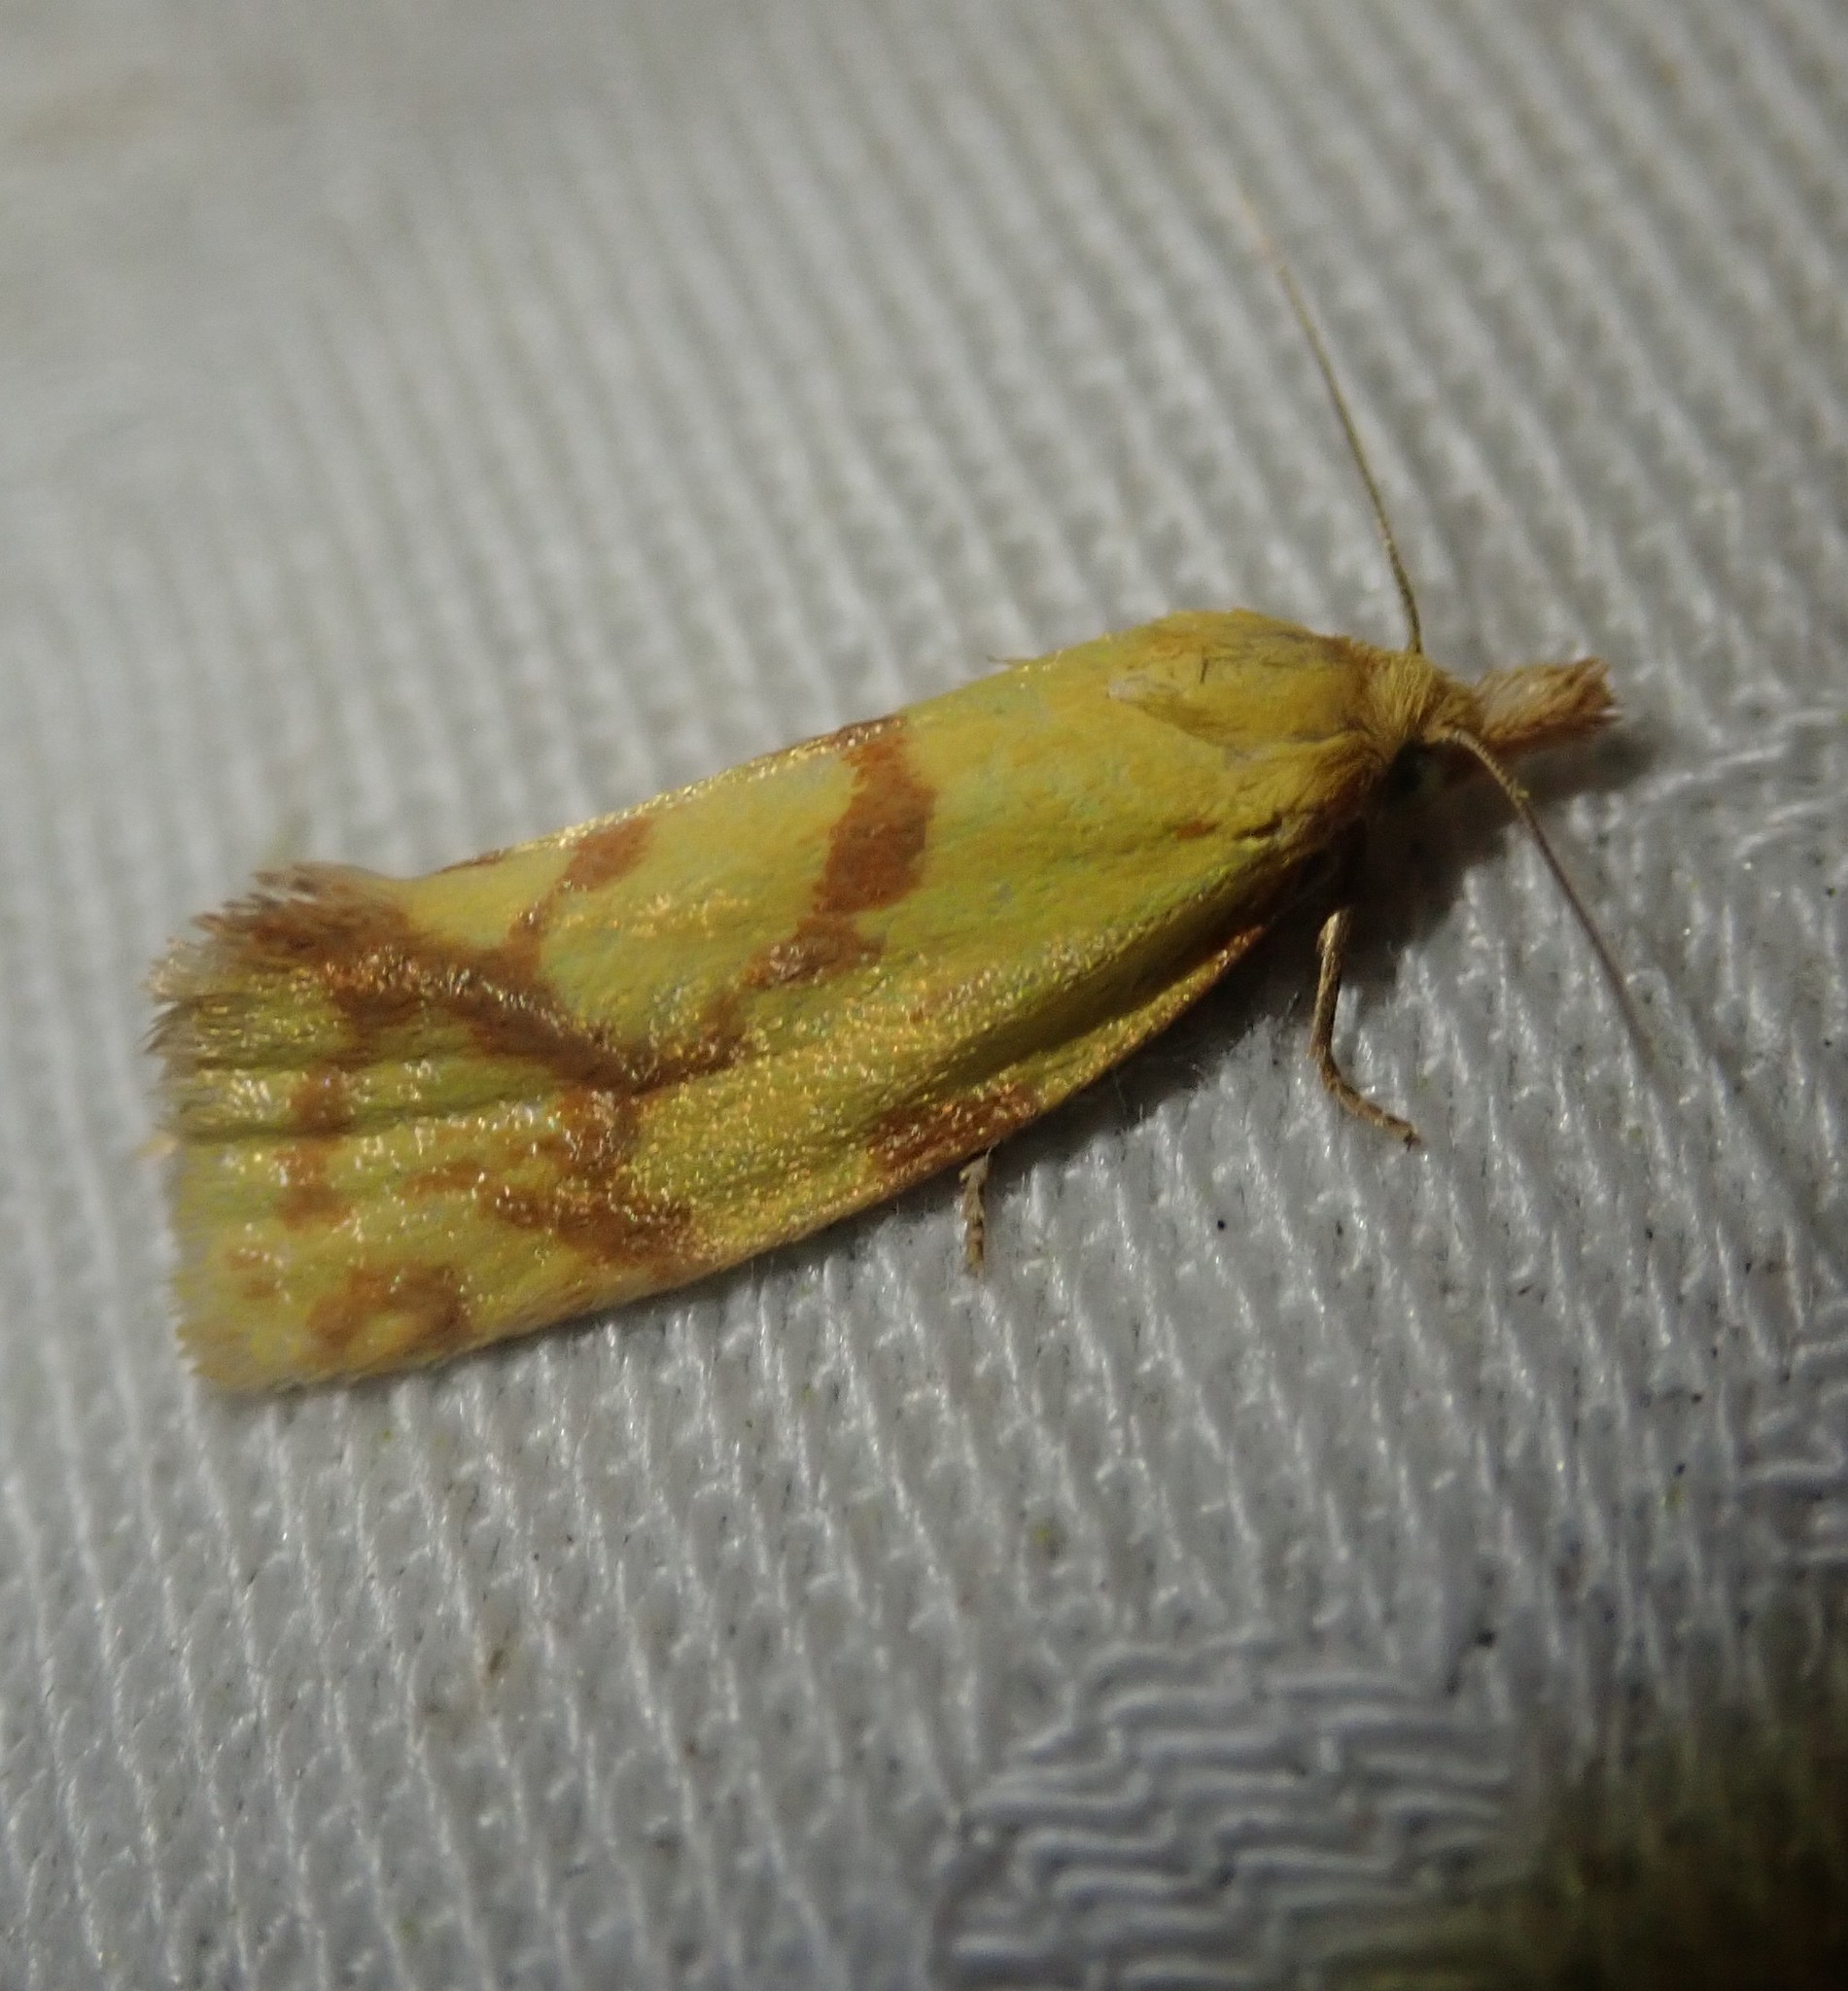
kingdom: Animalia
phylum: Arthropoda
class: Insecta
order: Lepidoptera
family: Tortricidae
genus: Agapeta
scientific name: Agapeta hamana
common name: Common yellow conch
